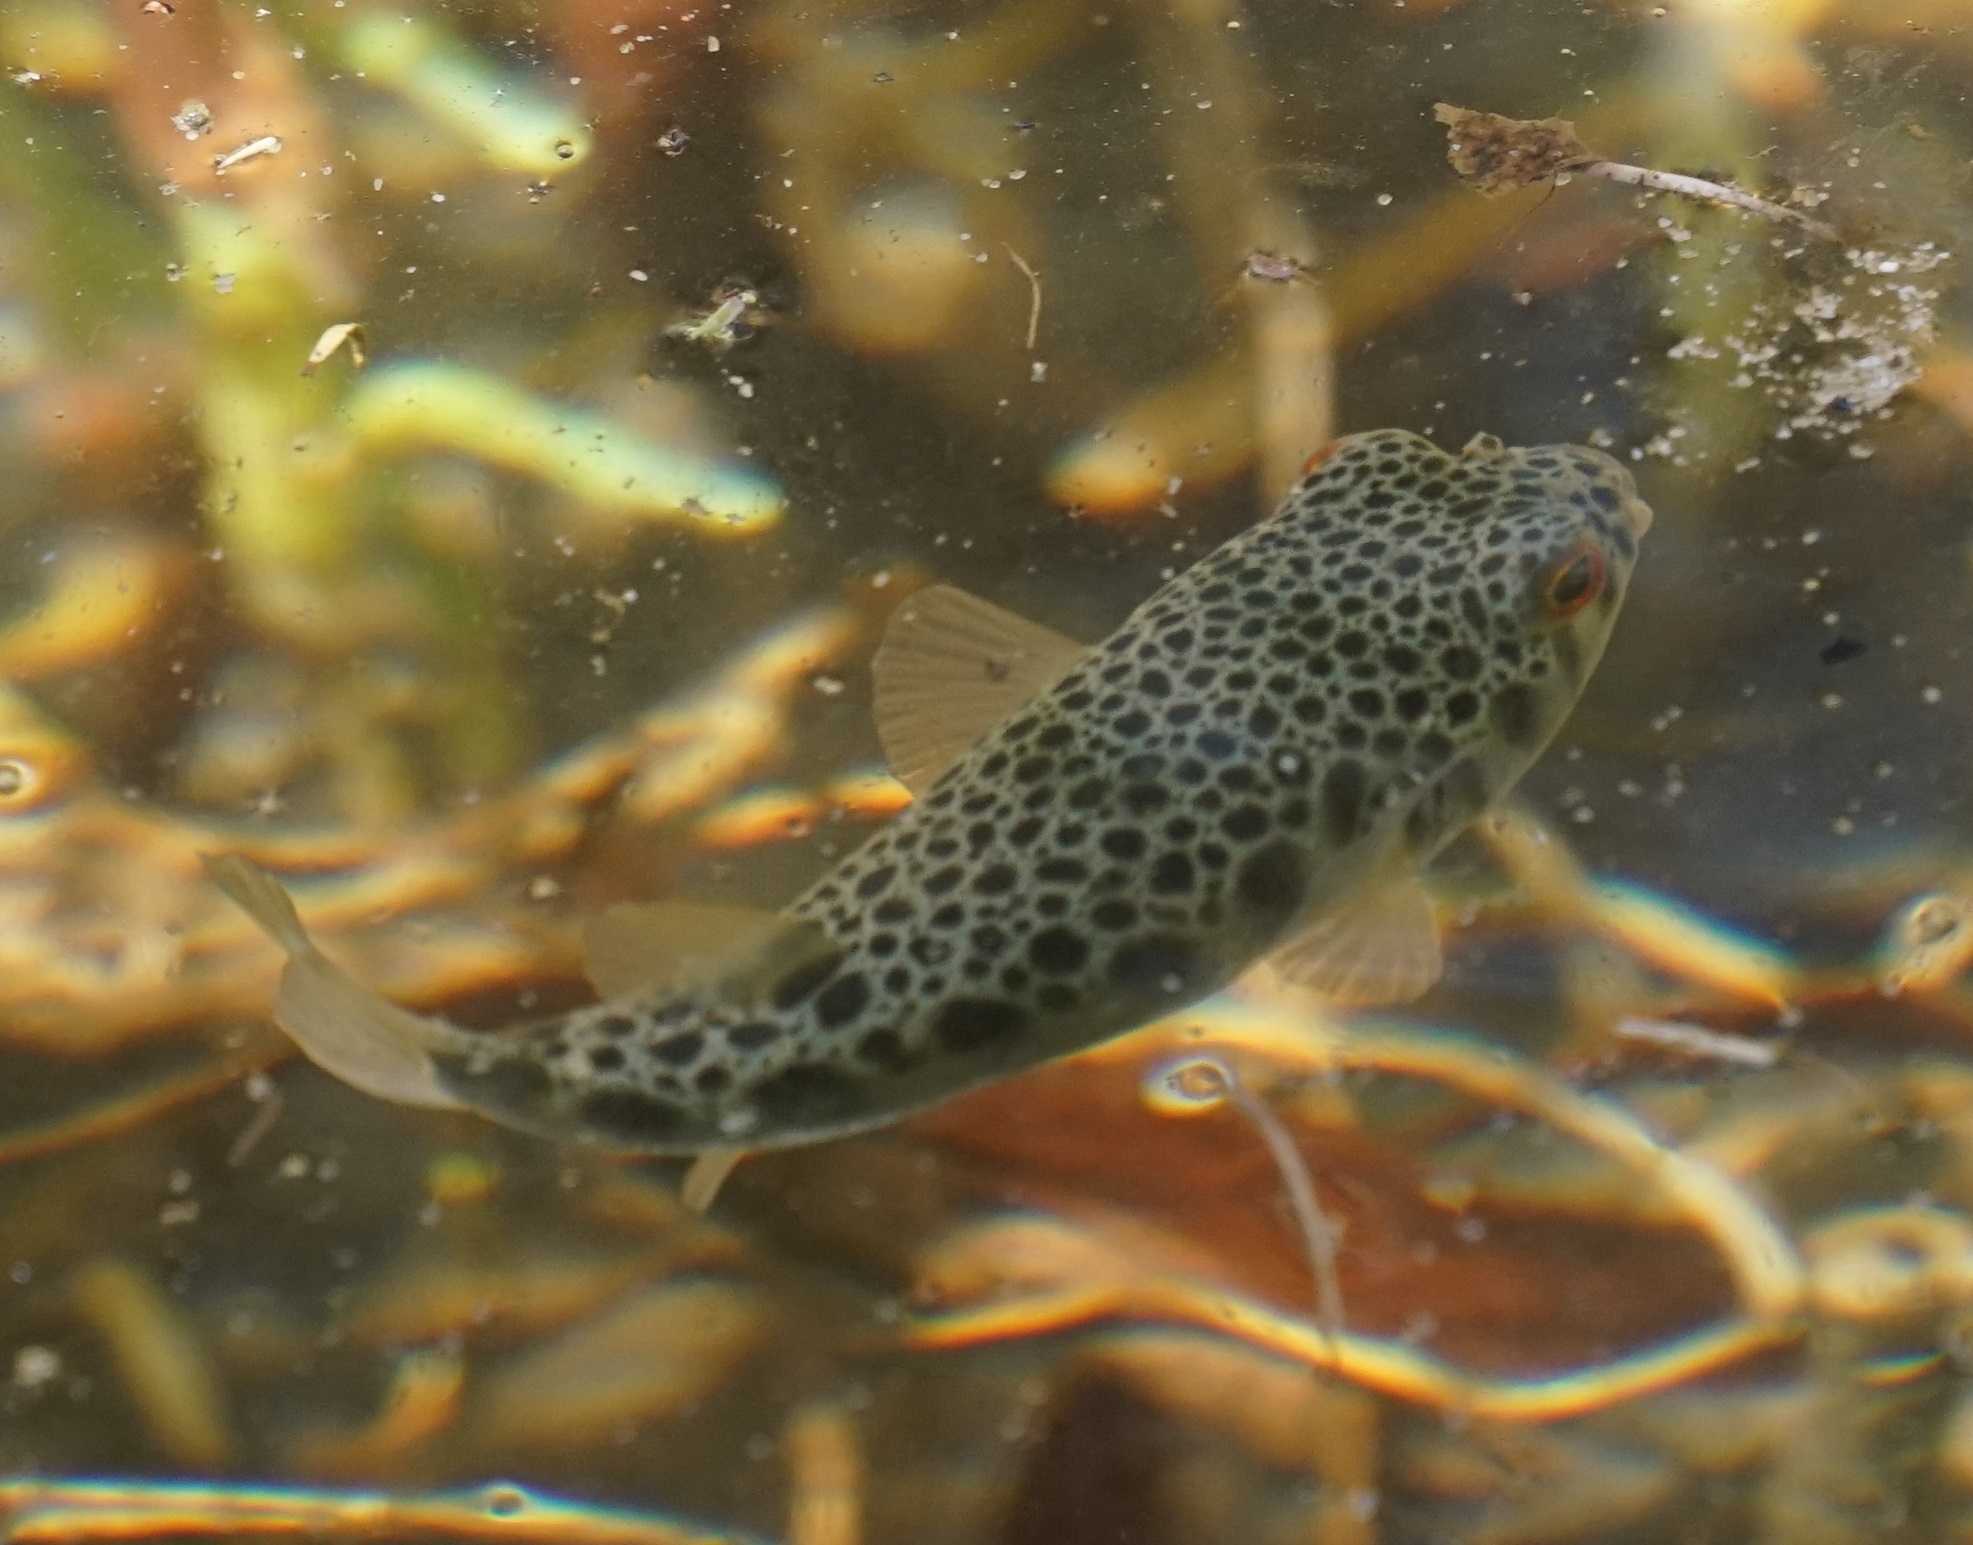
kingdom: Animalia
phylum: Chordata
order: Tetraodontiformes
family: Tetraodontidae
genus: Tetractenos
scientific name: Tetractenos hamiltoni
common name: Common toadfish
